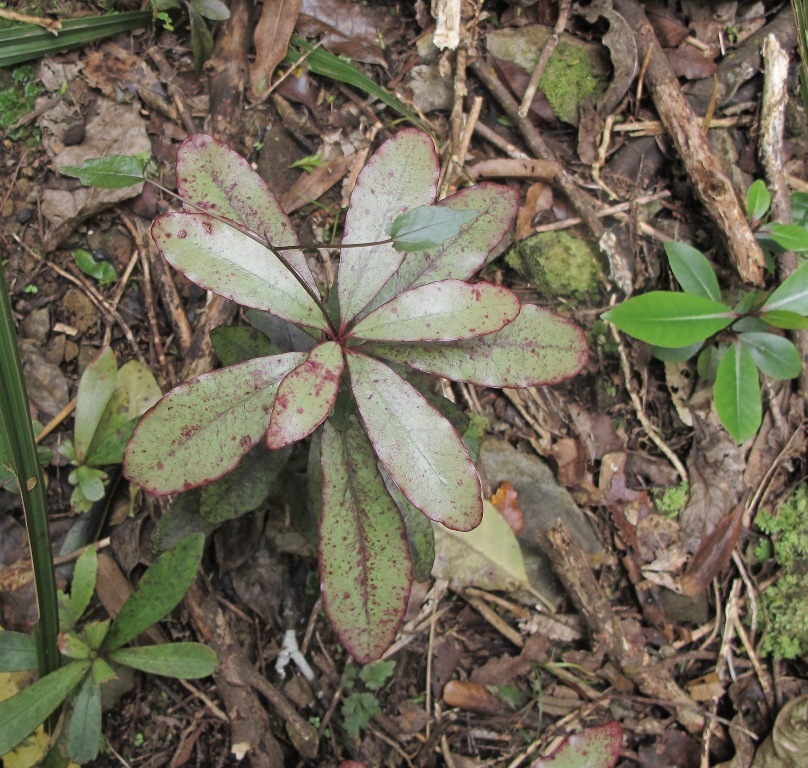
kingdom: Plantae
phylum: Tracheophyta
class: Magnoliopsida
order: Canellales
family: Winteraceae
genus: Pseudowintera
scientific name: Pseudowintera colorata
